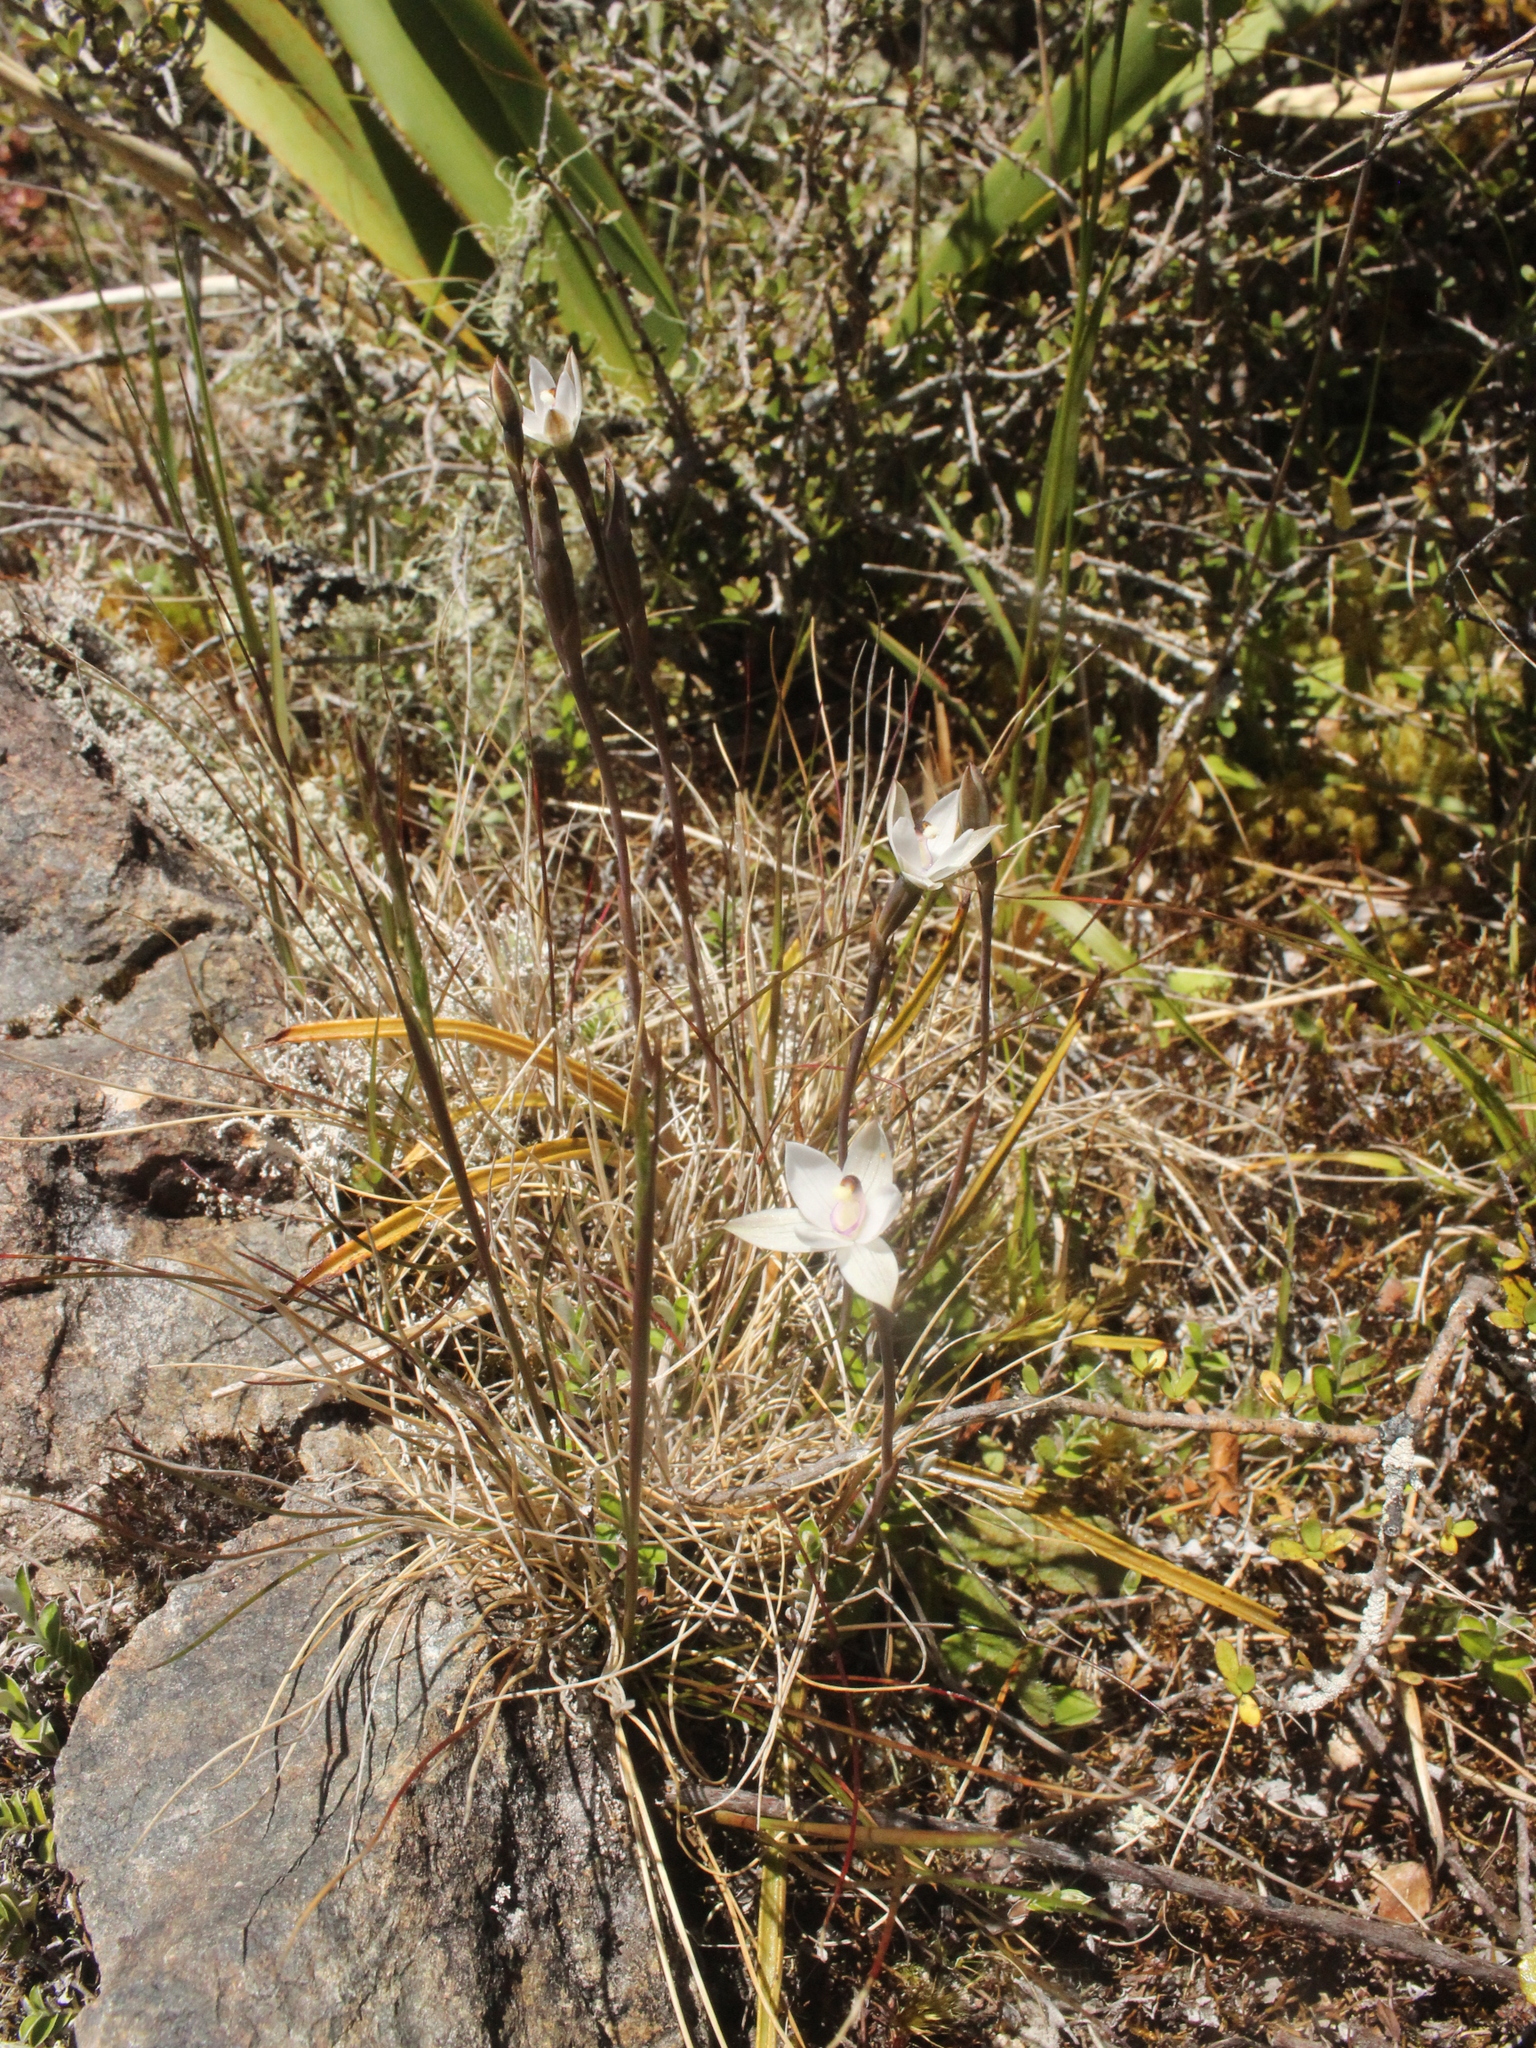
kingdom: Plantae
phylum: Tracheophyta
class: Liliopsida
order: Asparagales
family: Orchidaceae
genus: Thelymitra
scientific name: Thelymitra longifolia
